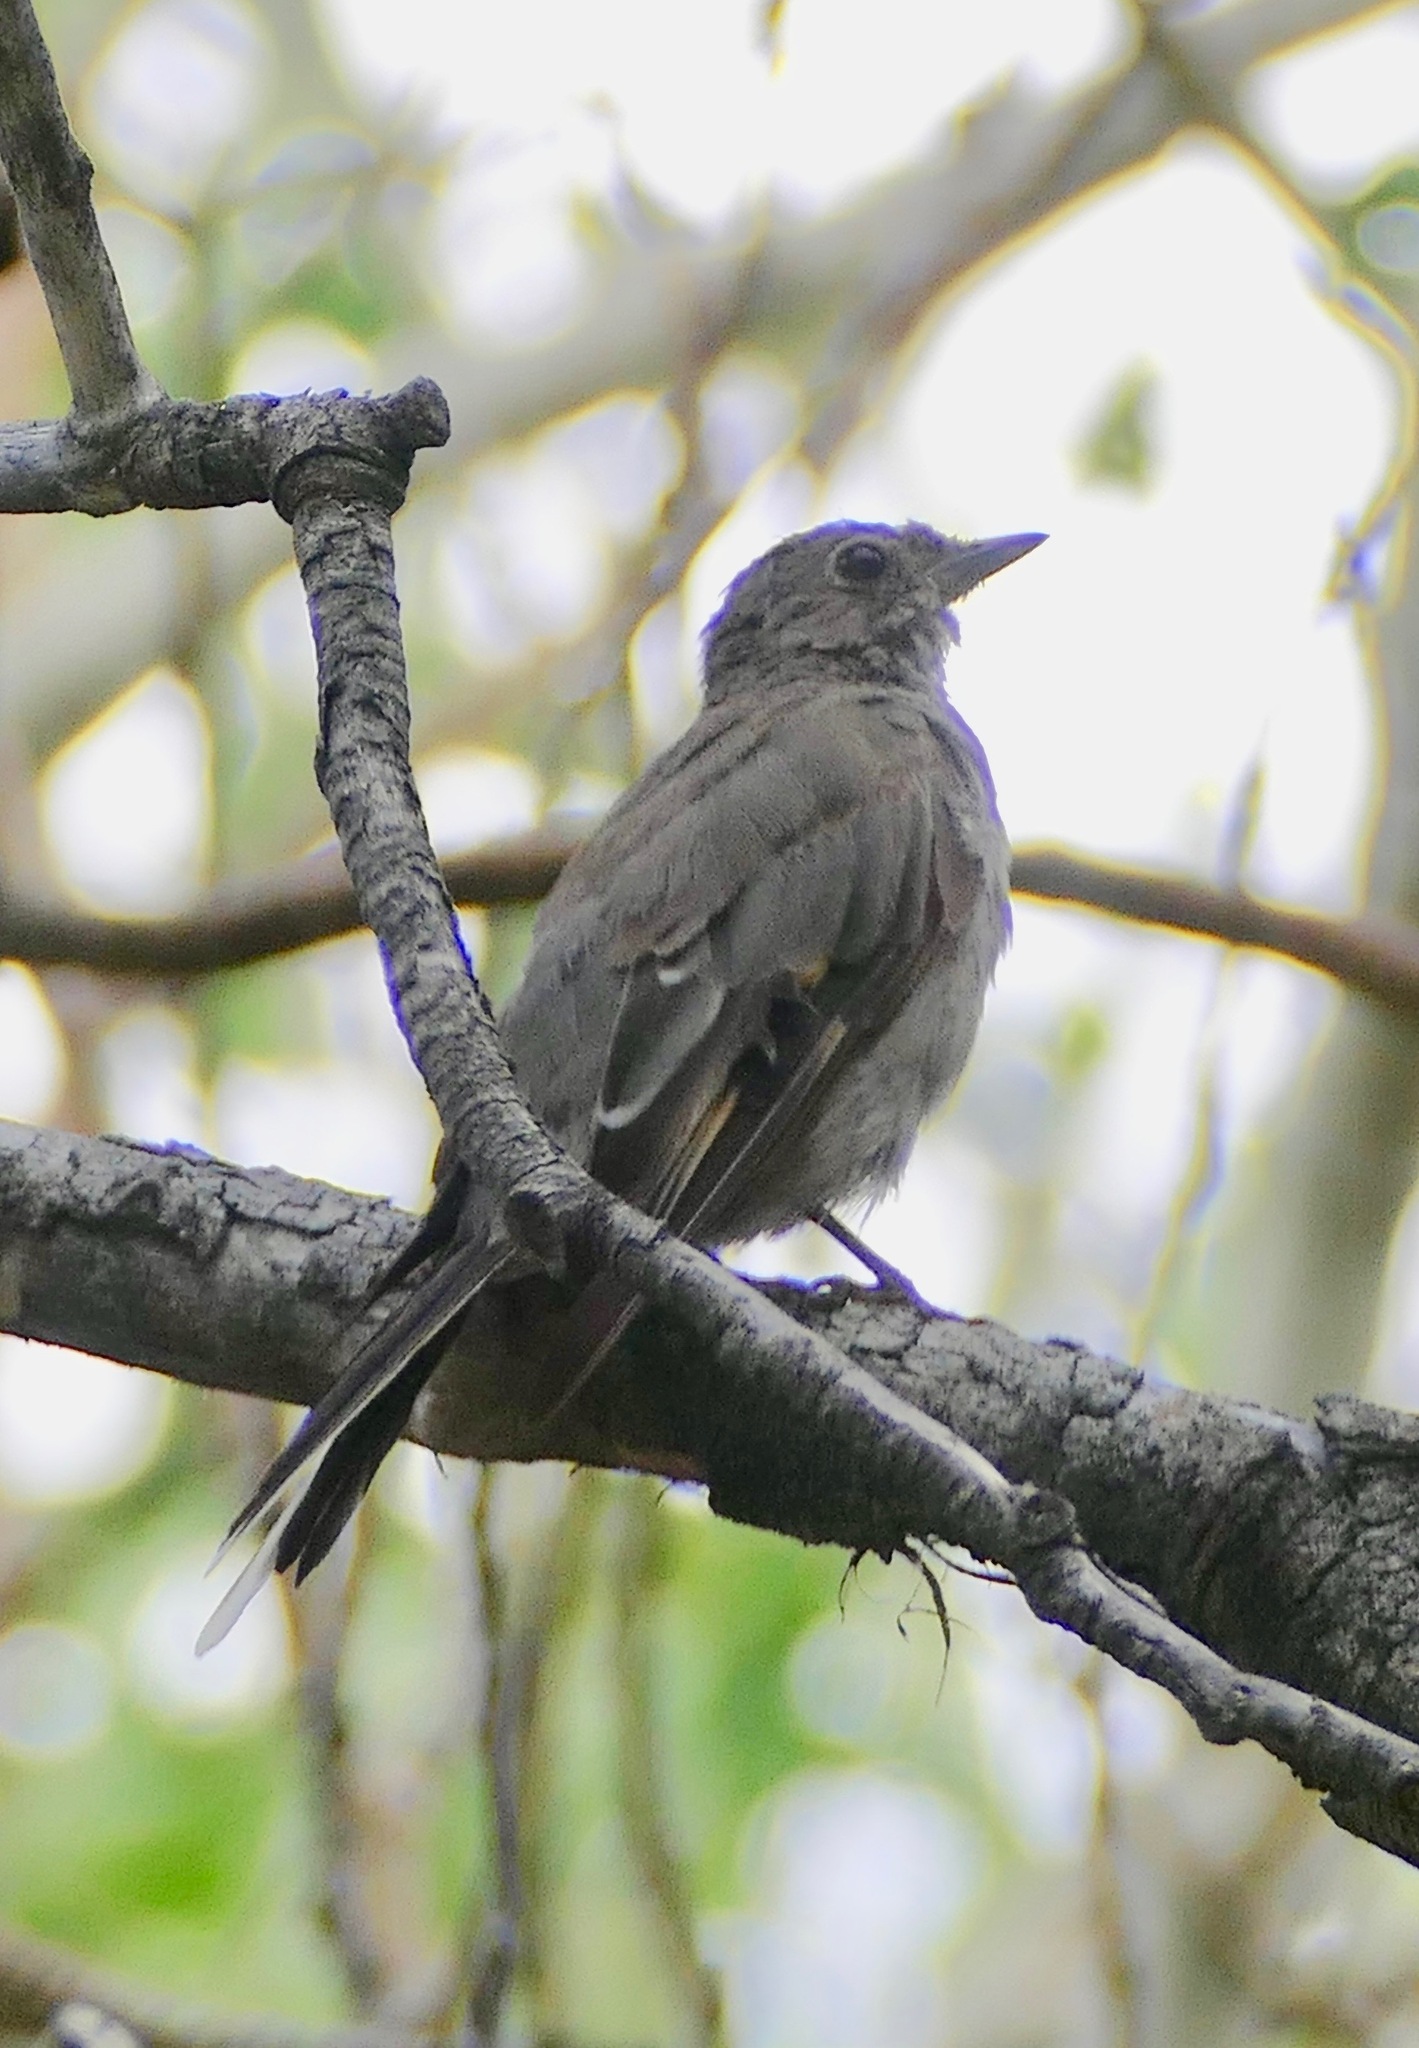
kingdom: Animalia
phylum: Chordata
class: Aves
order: Passeriformes
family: Turdidae
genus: Myadestes
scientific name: Myadestes townsendi
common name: Townsend's solitaire
